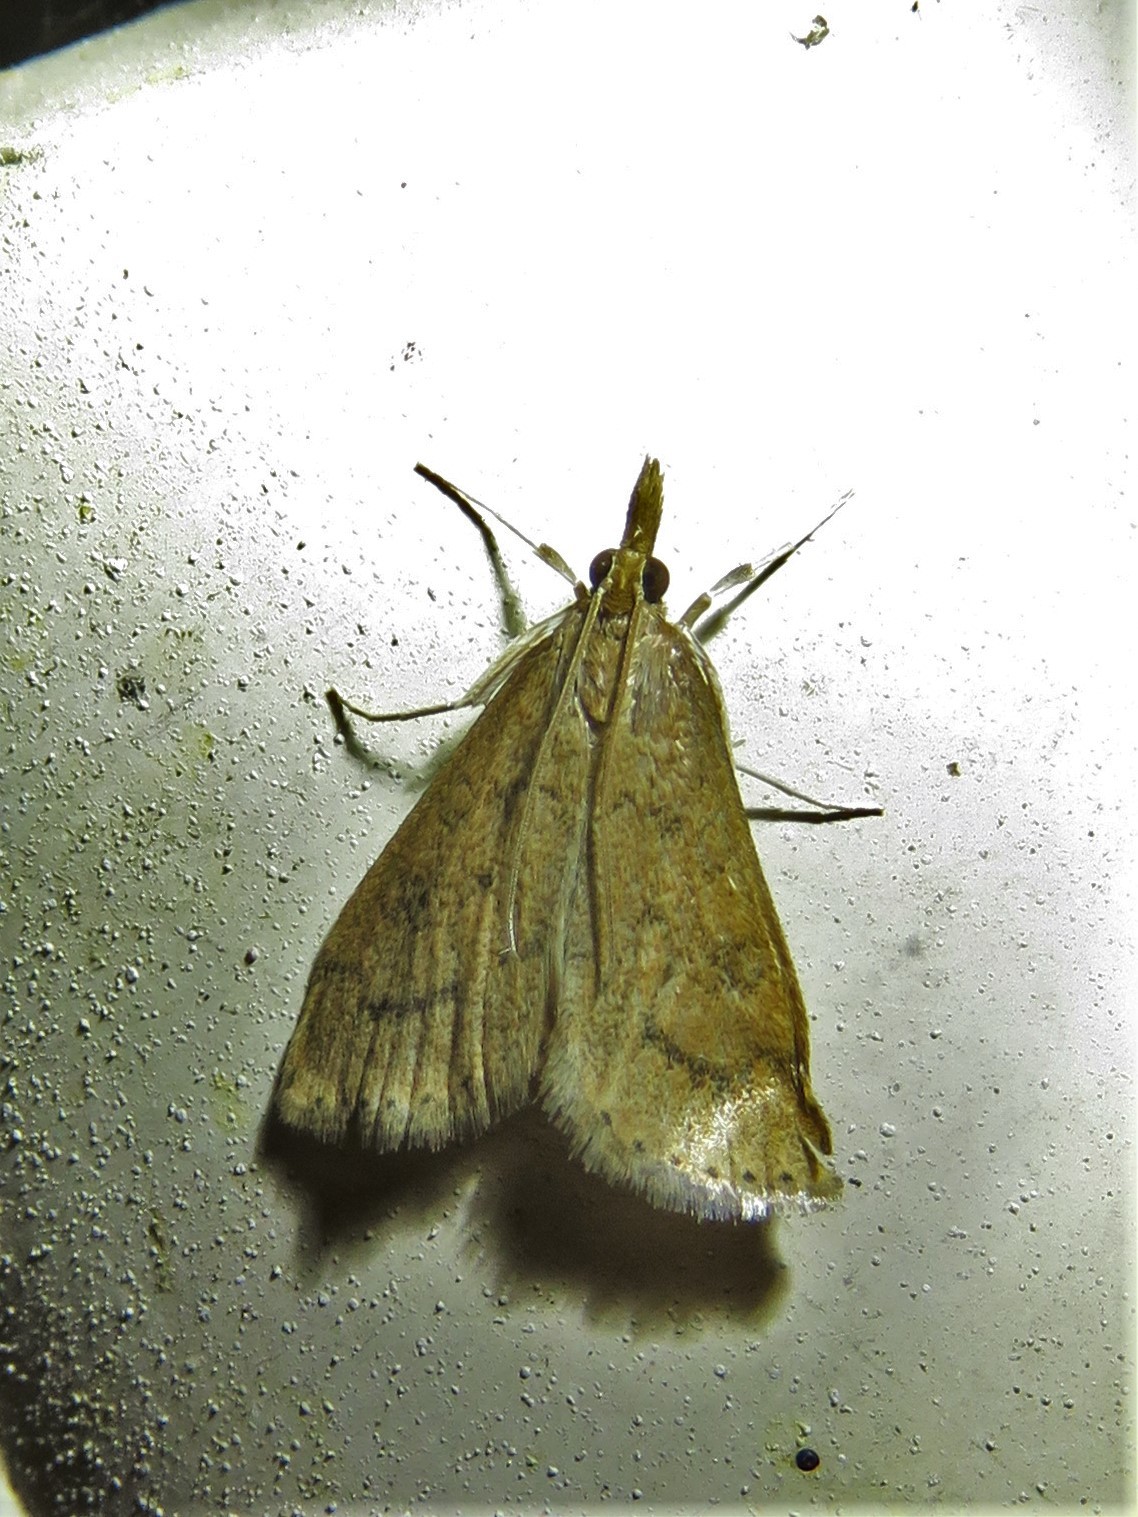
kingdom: Animalia
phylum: Arthropoda
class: Insecta
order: Lepidoptera
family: Crambidae
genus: Udea
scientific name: Udea rubigalis
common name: Celery leaftier moth
